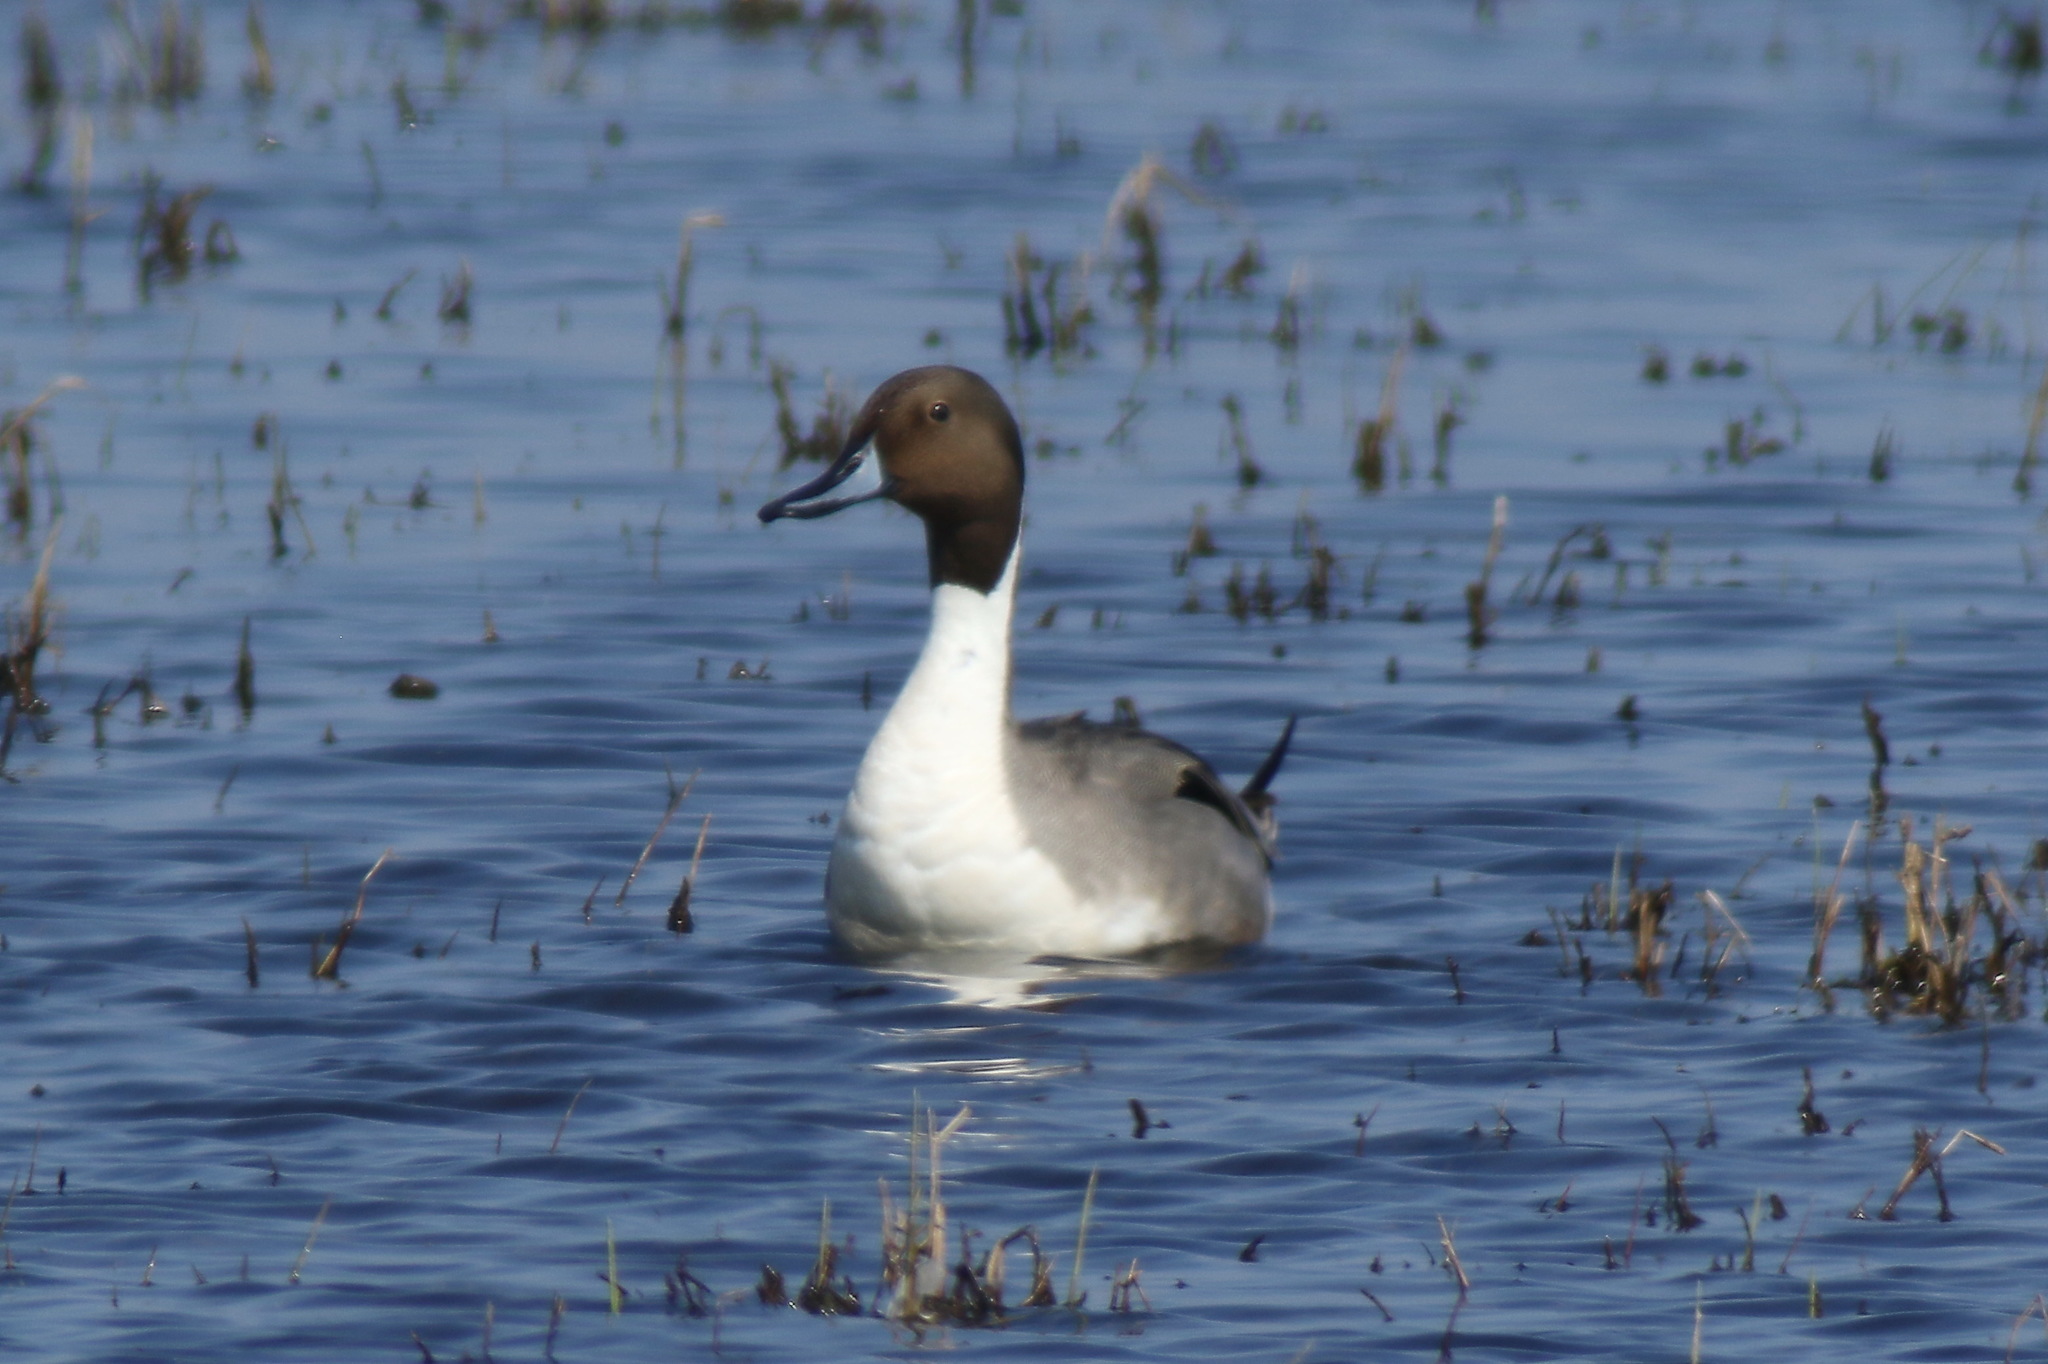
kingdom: Animalia
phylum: Chordata
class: Aves
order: Anseriformes
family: Anatidae
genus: Anas
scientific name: Anas acuta
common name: Northern pintail
